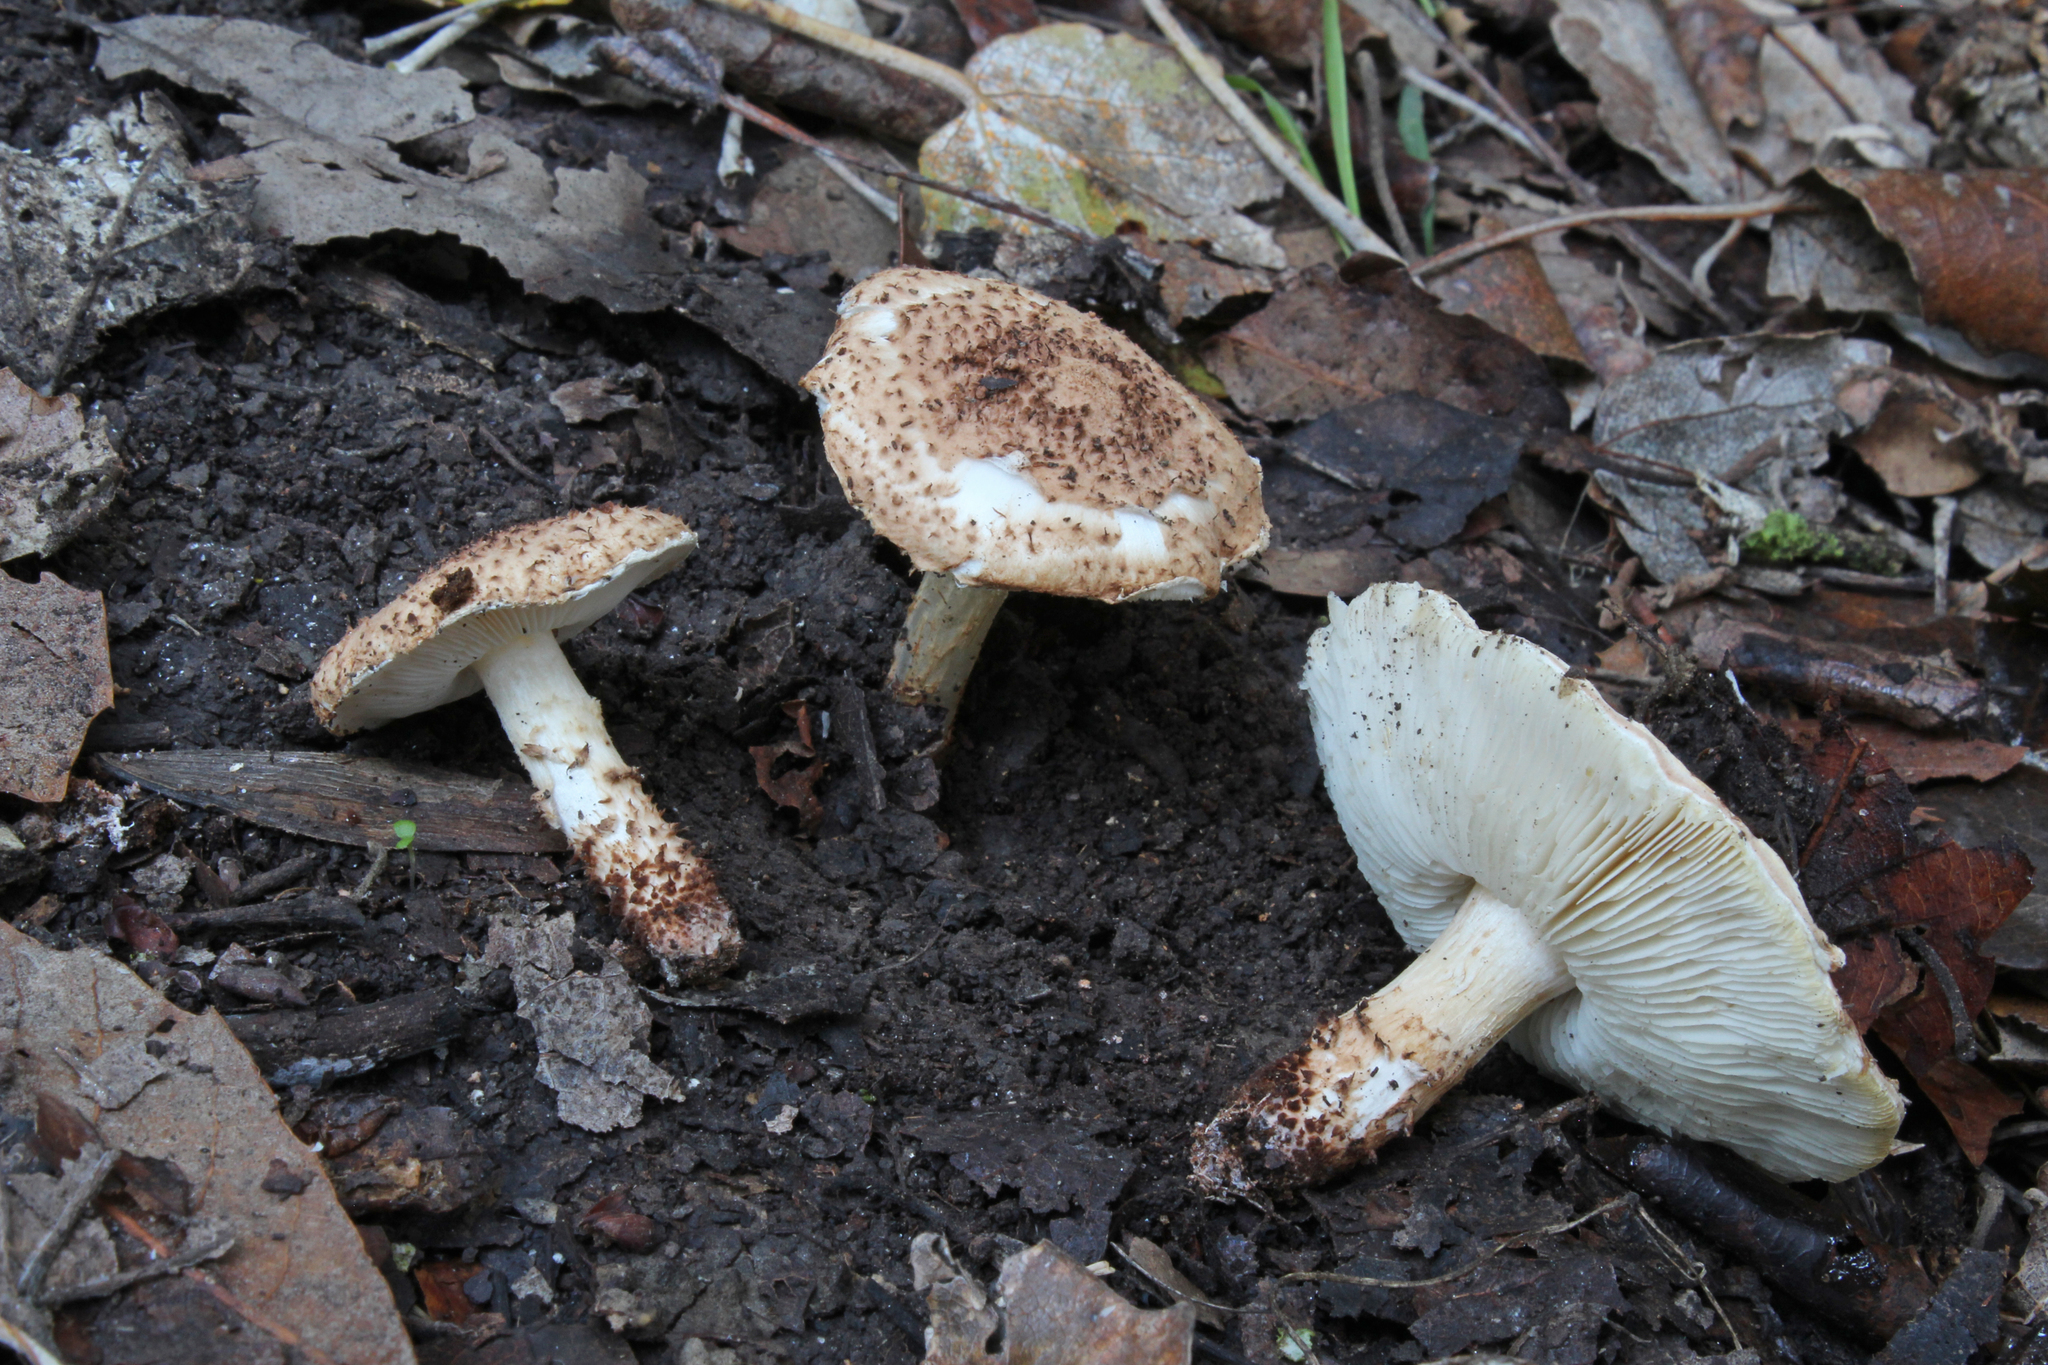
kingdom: Fungi
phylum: Basidiomycota
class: Agaricomycetes
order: Agaricales
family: Agaricaceae
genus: Echinoderma
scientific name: Echinoderma carinii
